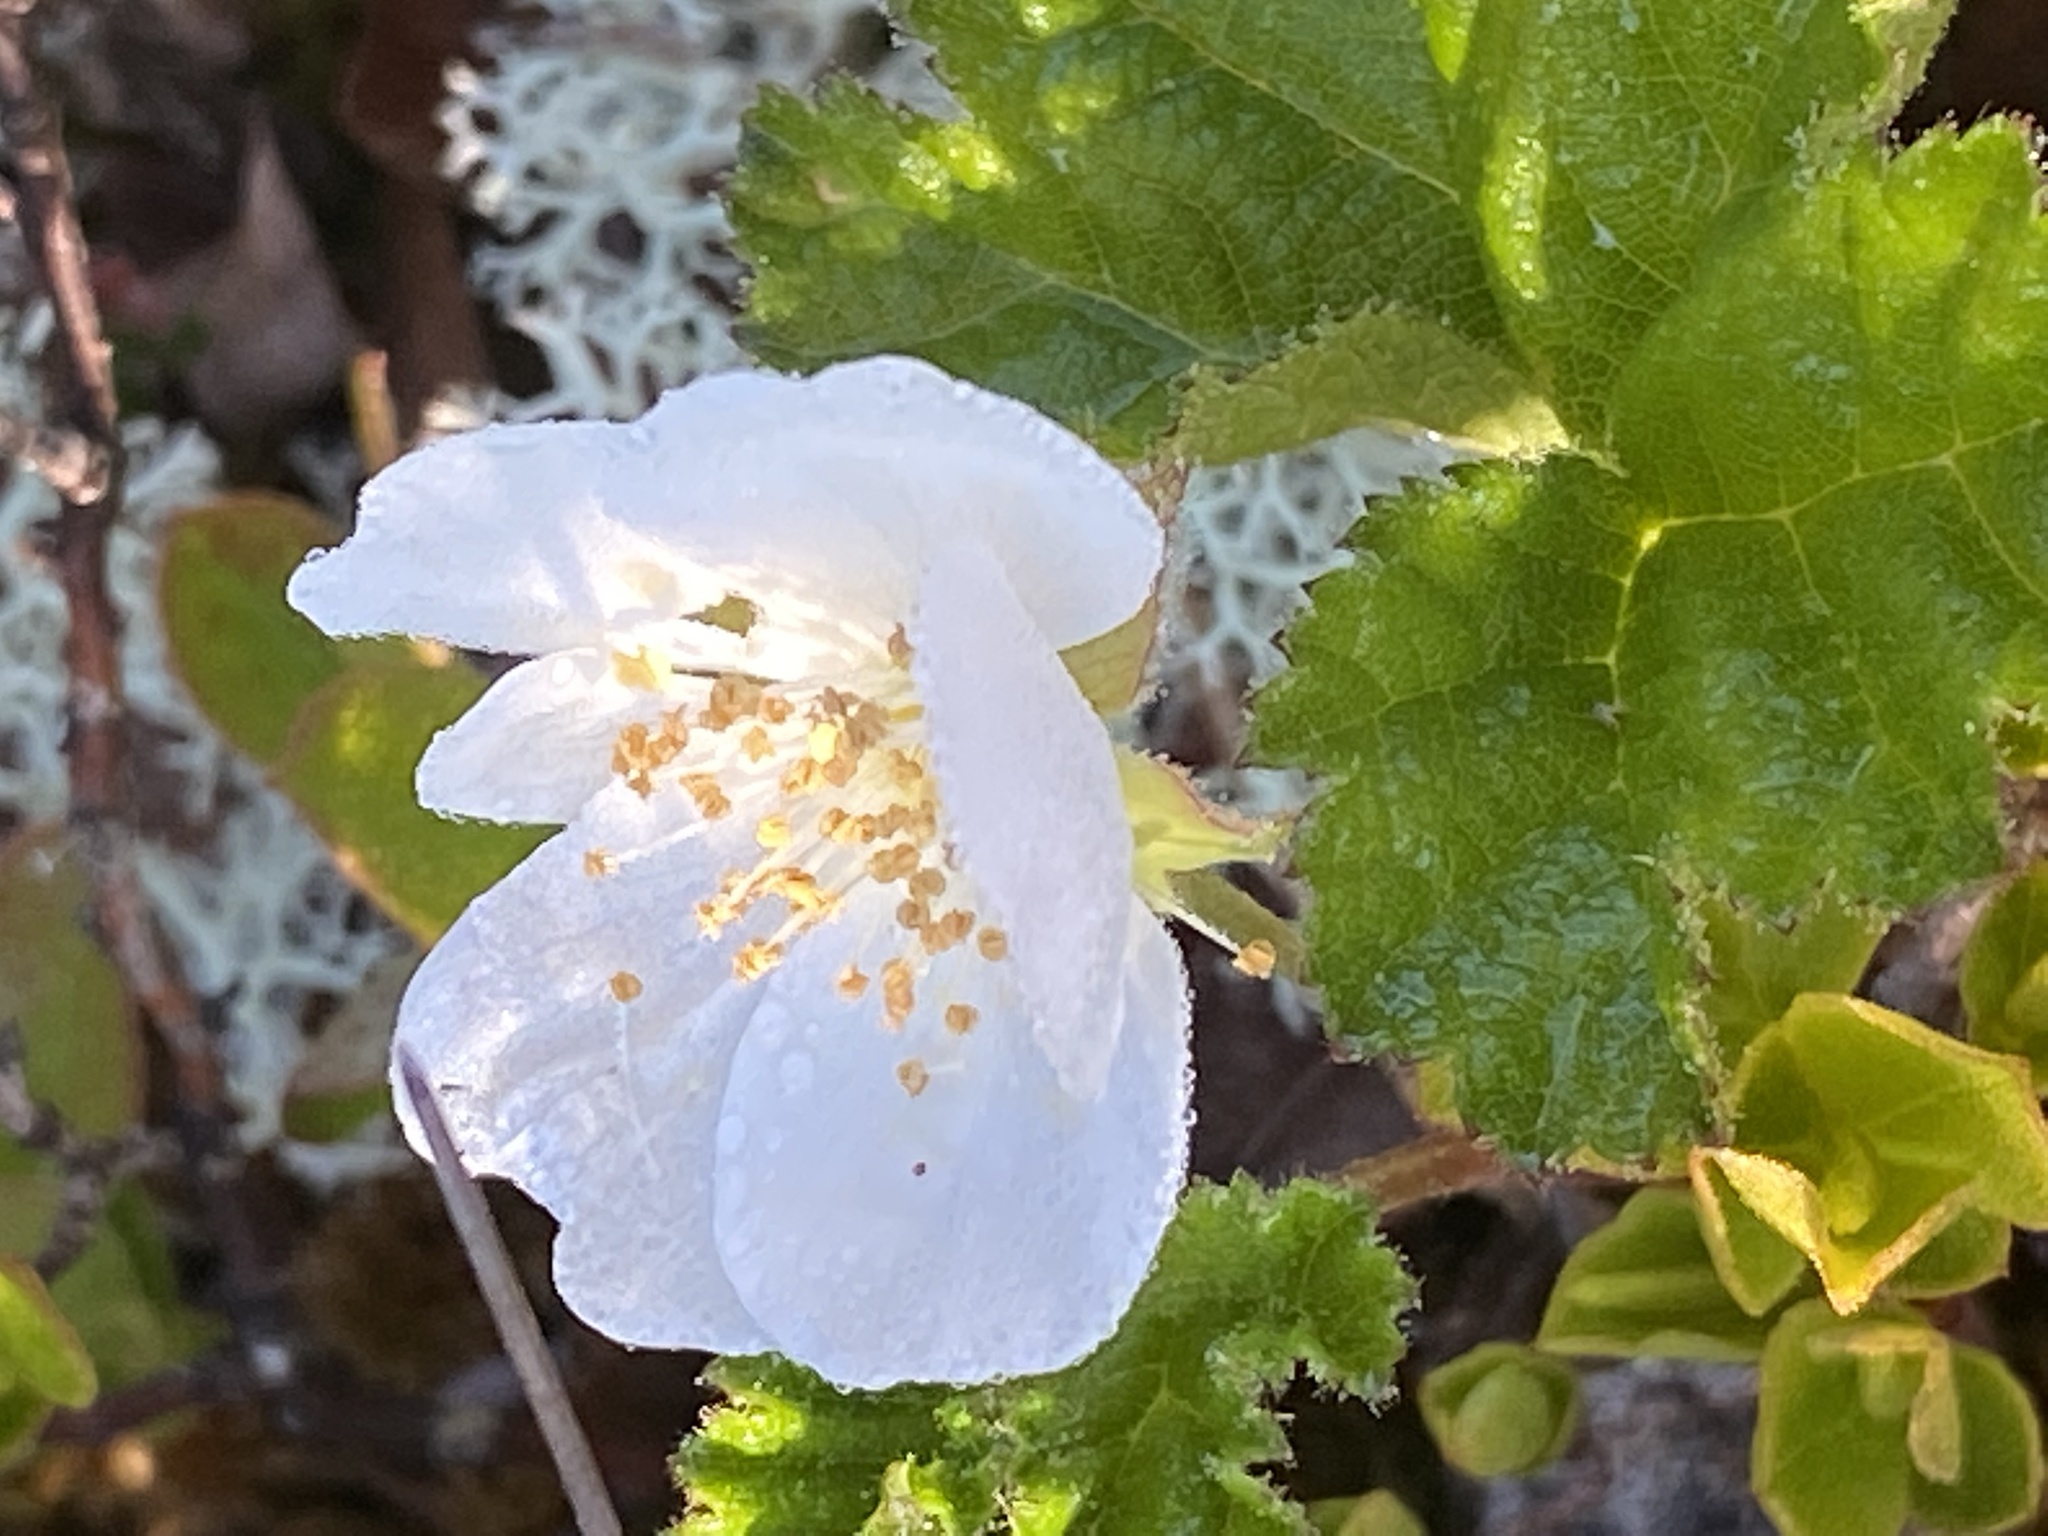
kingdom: Plantae
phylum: Tracheophyta
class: Magnoliopsida
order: Rosales
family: Rosaceae
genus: Rubus
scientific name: Rubus chamaemorus
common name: Cloudberry
